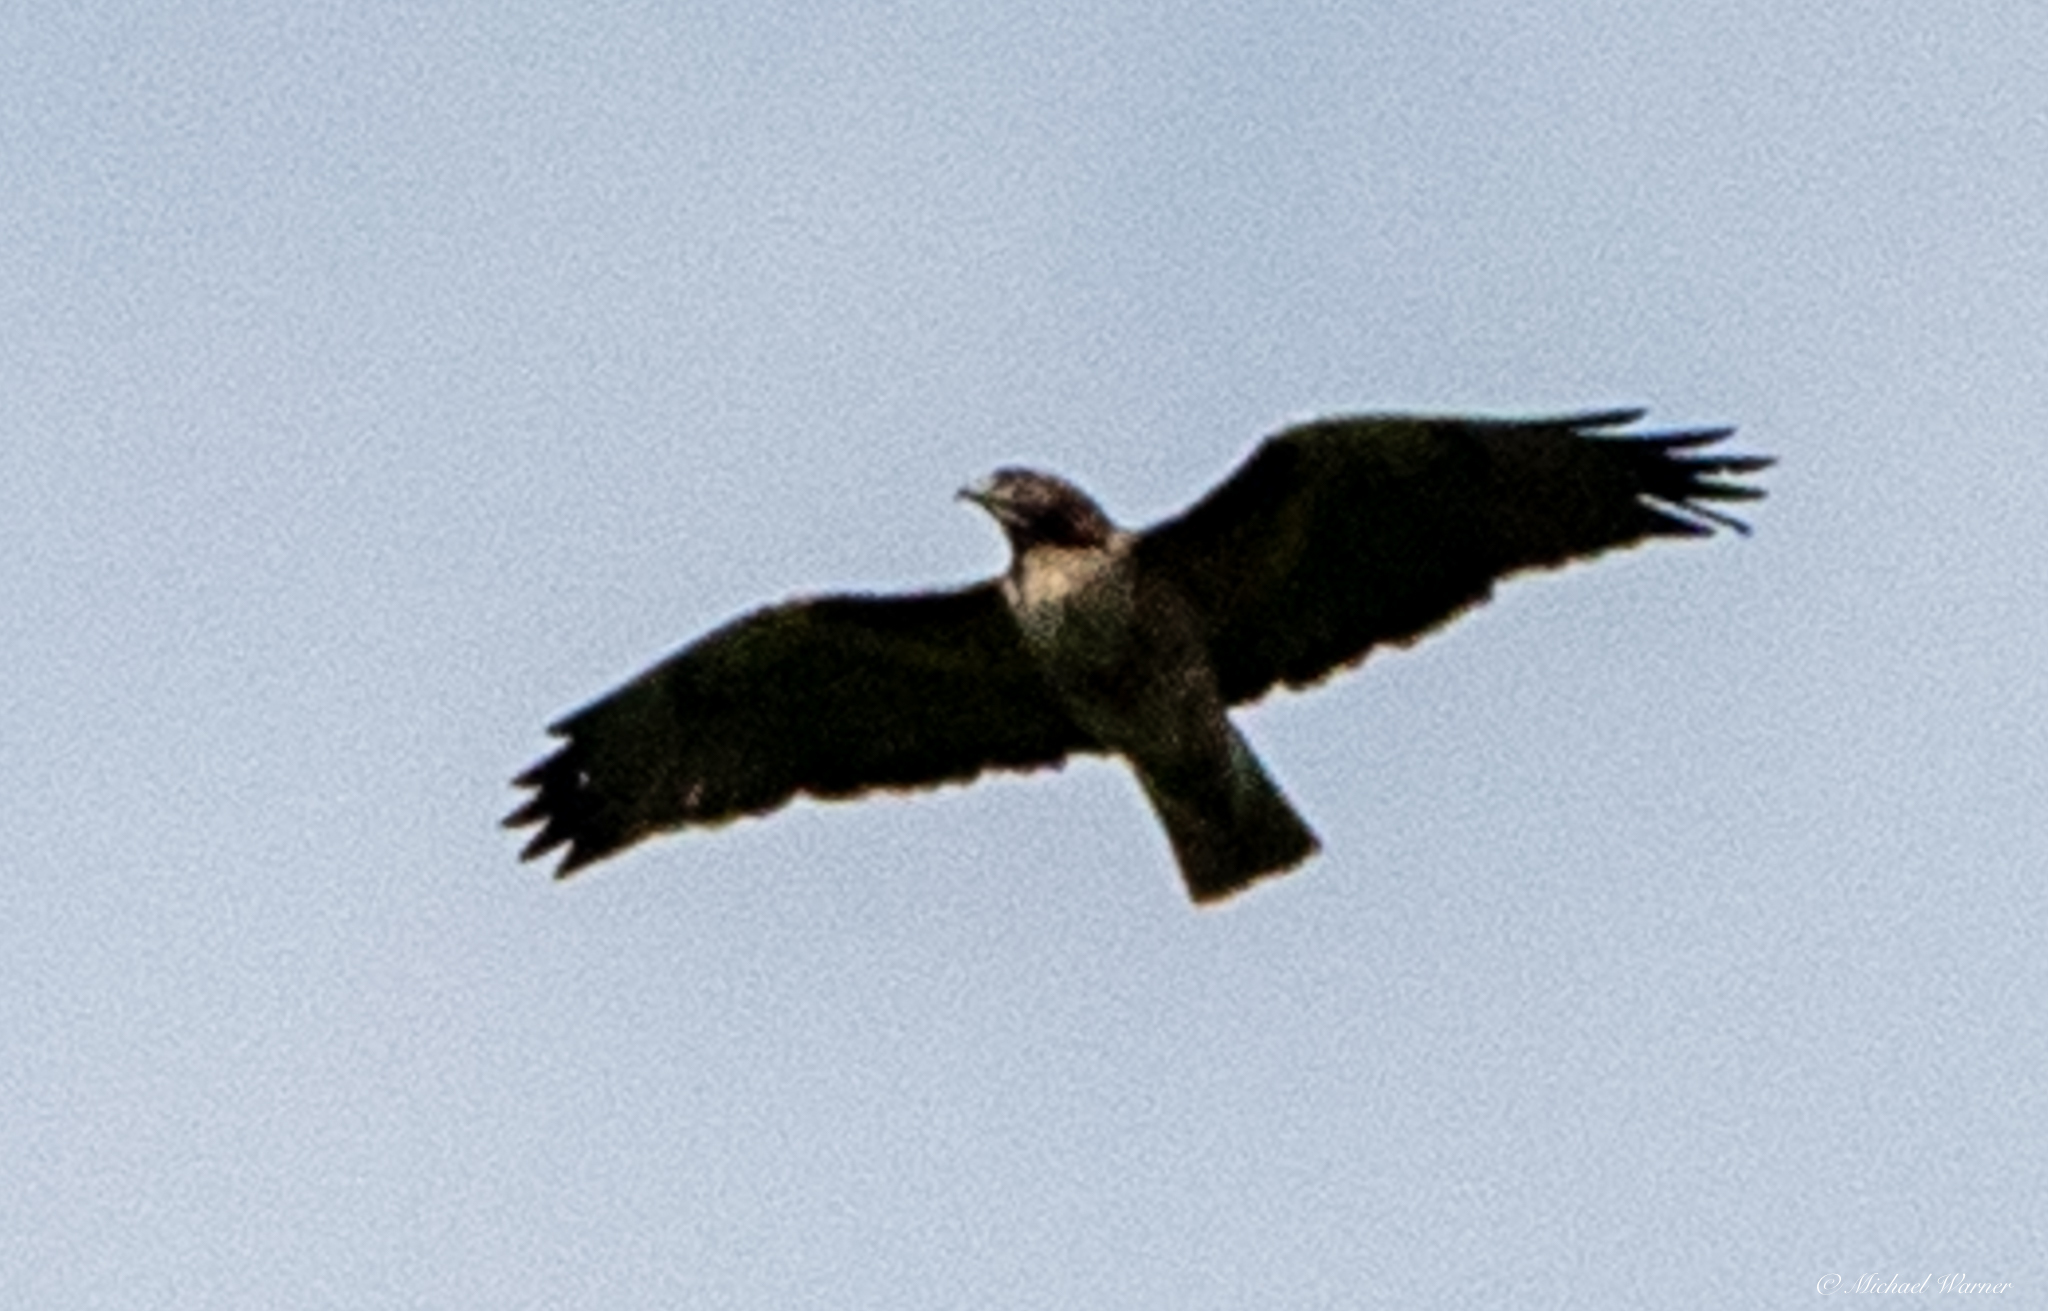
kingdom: Animalia
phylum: Chordata
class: Aves
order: Accipitriformes
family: Accipitridae
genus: Buteo
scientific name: Buteo jamaicensis
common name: Red-tailed hawk
